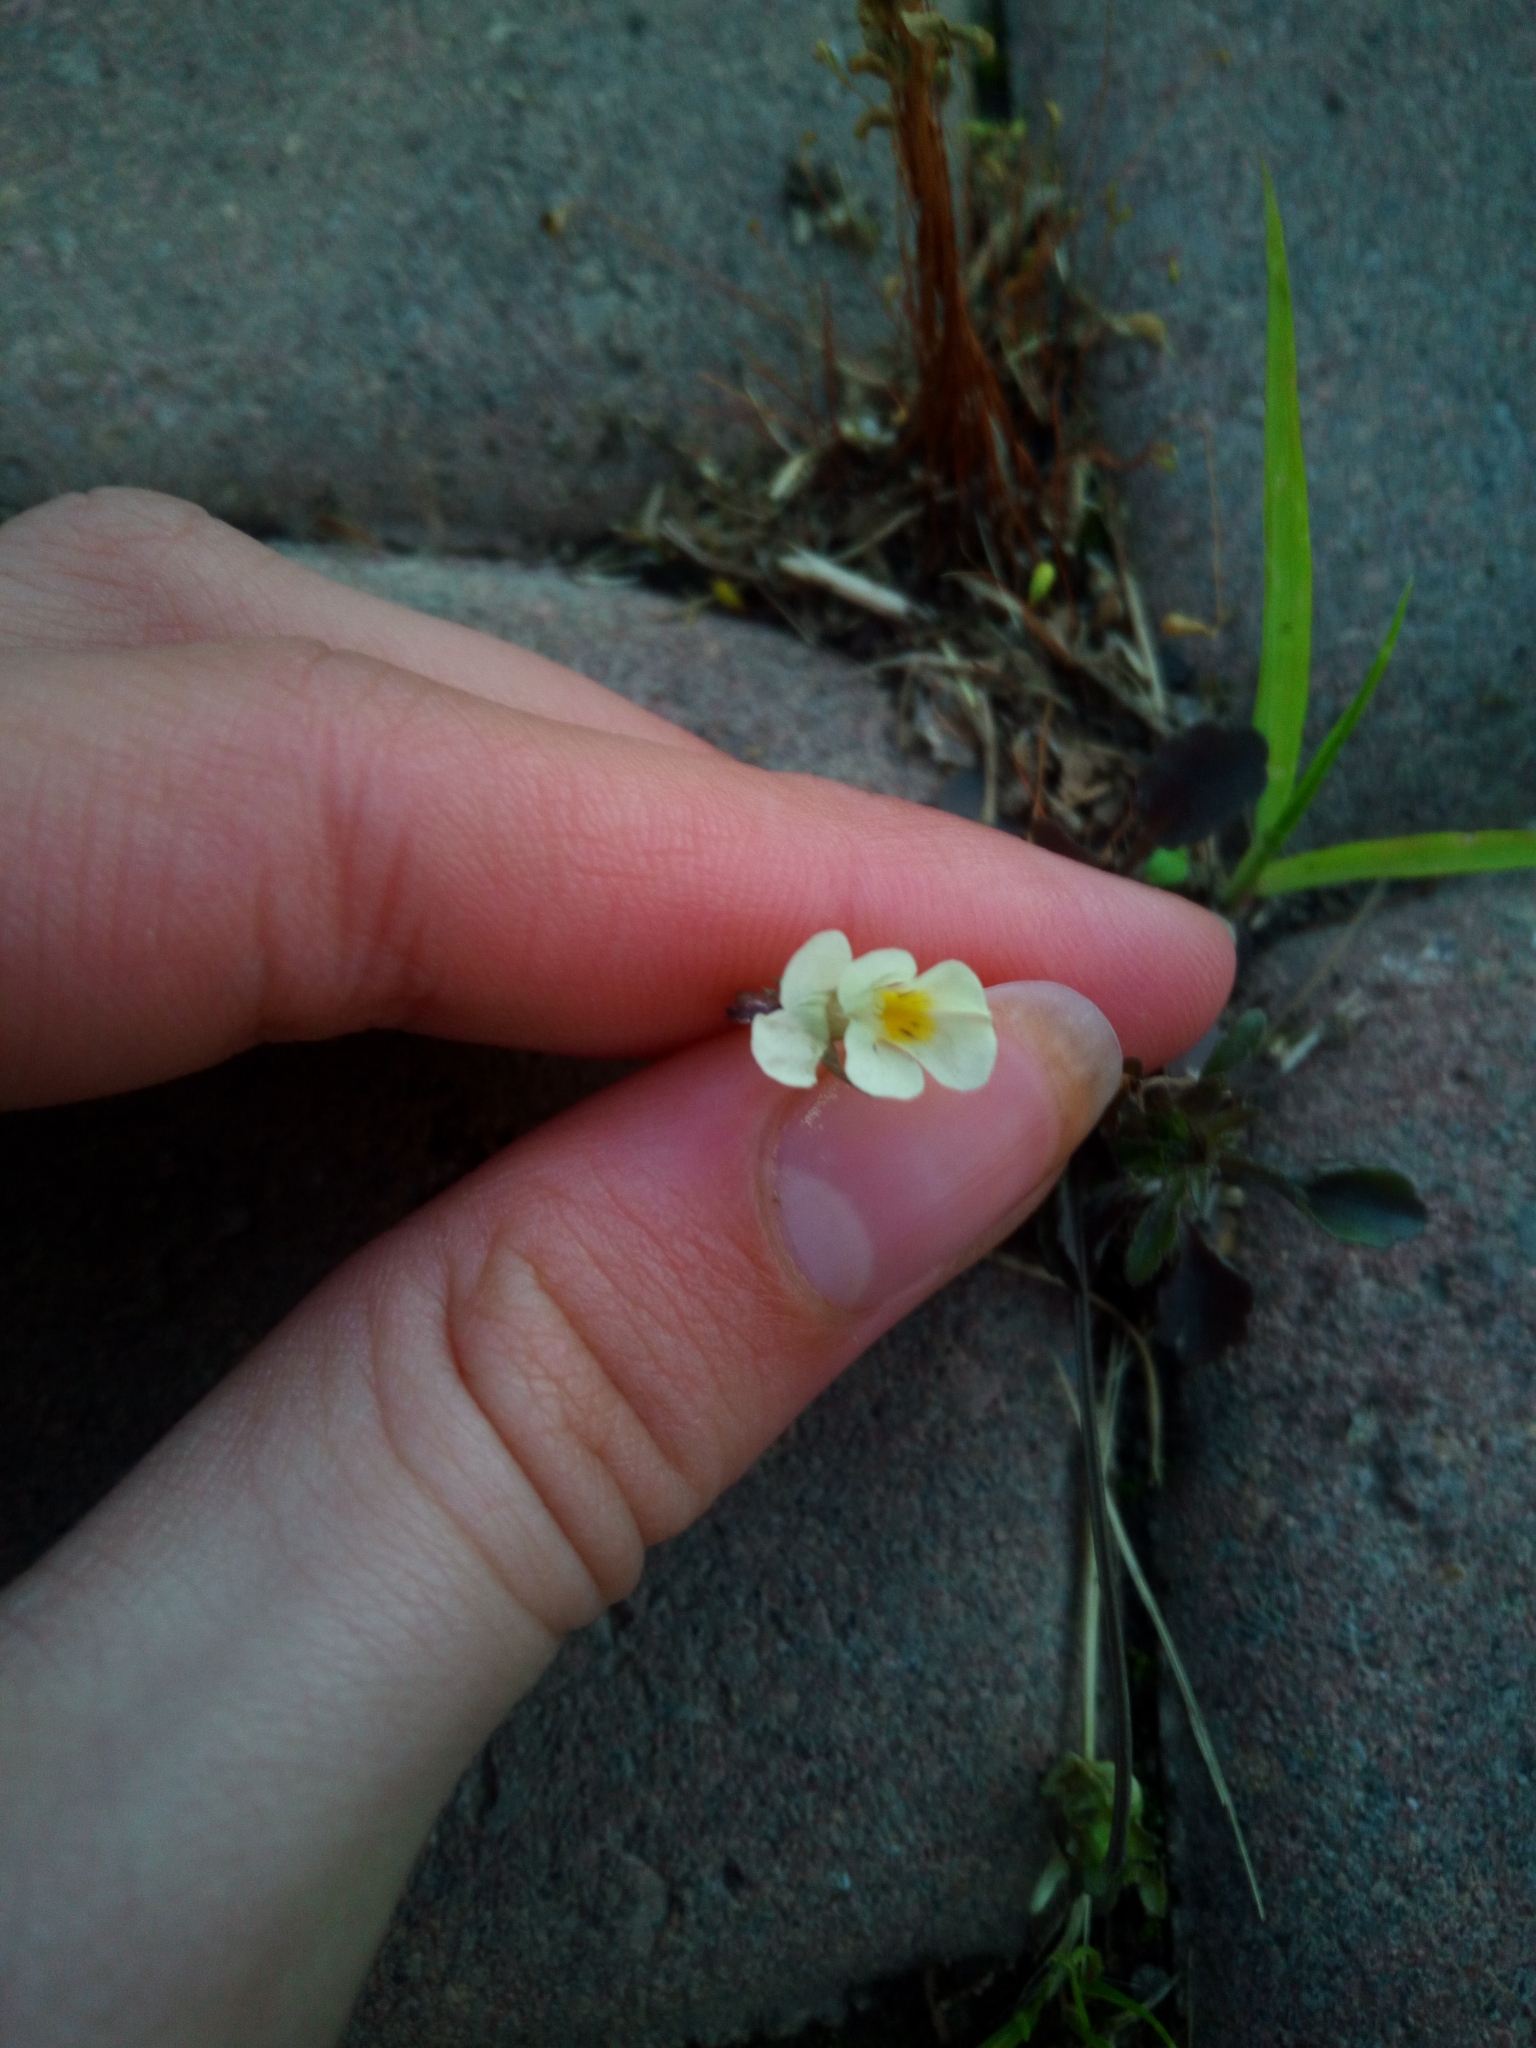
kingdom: Plantae
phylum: Tracheophyta
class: Magnoliopsida
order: Malpighiales
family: Violaceae
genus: Viola
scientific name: Viola arvensis
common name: Field pansy
